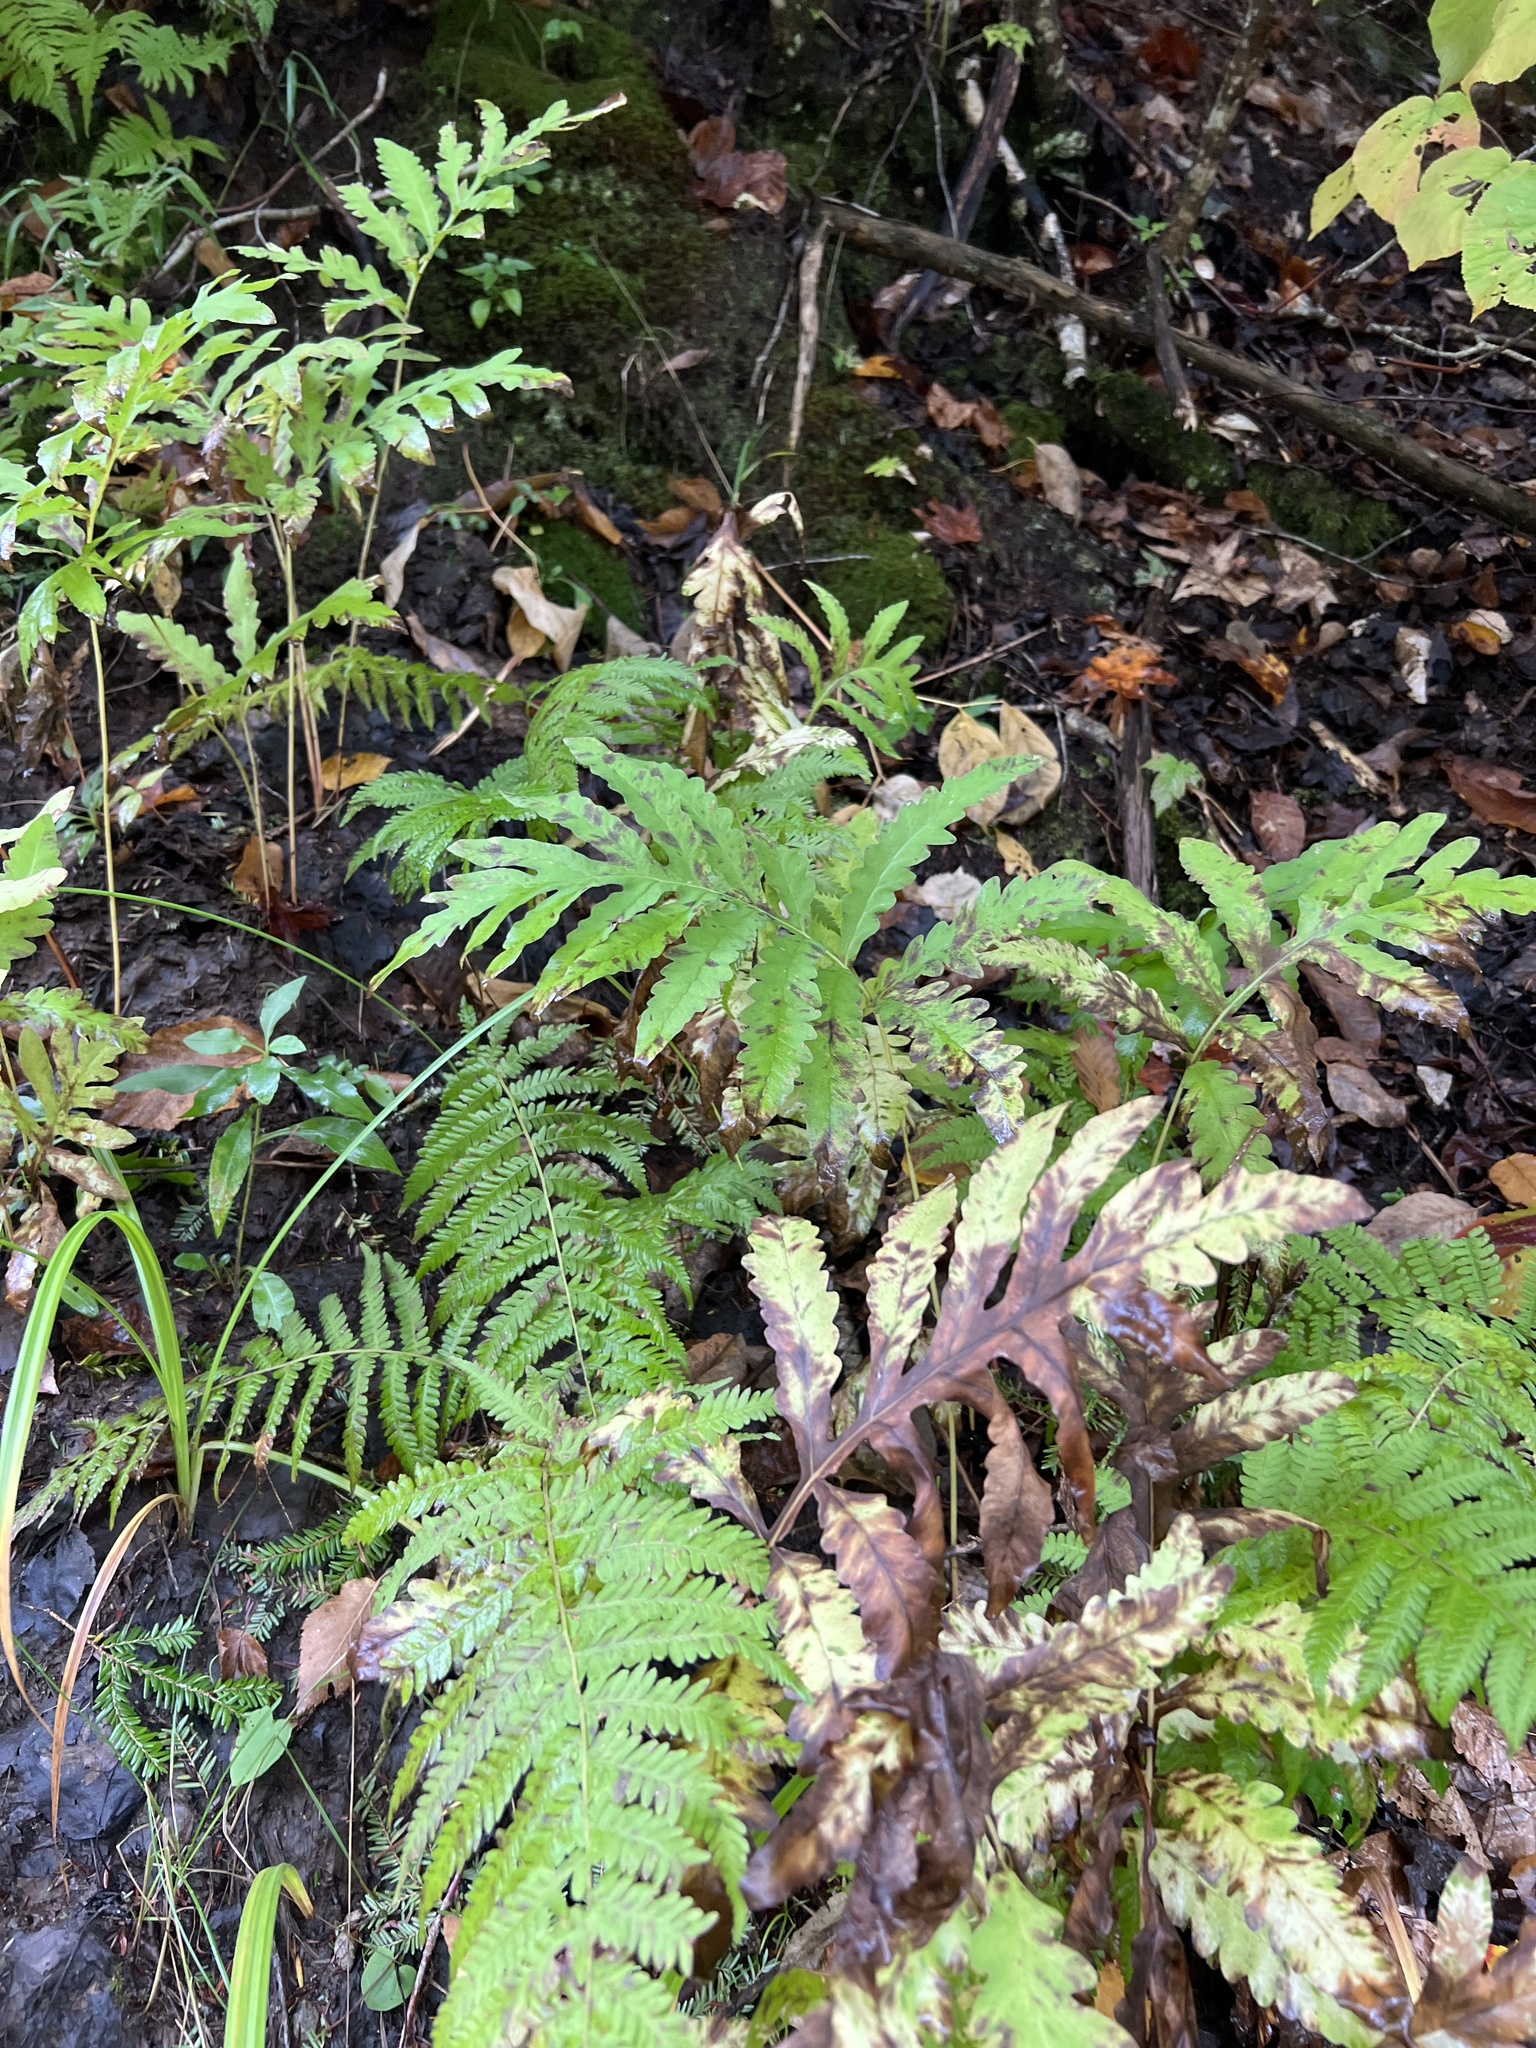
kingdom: Plantae
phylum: Tracheophyta
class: Polypodiopsida
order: Polypodiales
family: Onocleaceae
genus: Onoclea
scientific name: Onoclea sensibilis
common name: Sensitive fern
